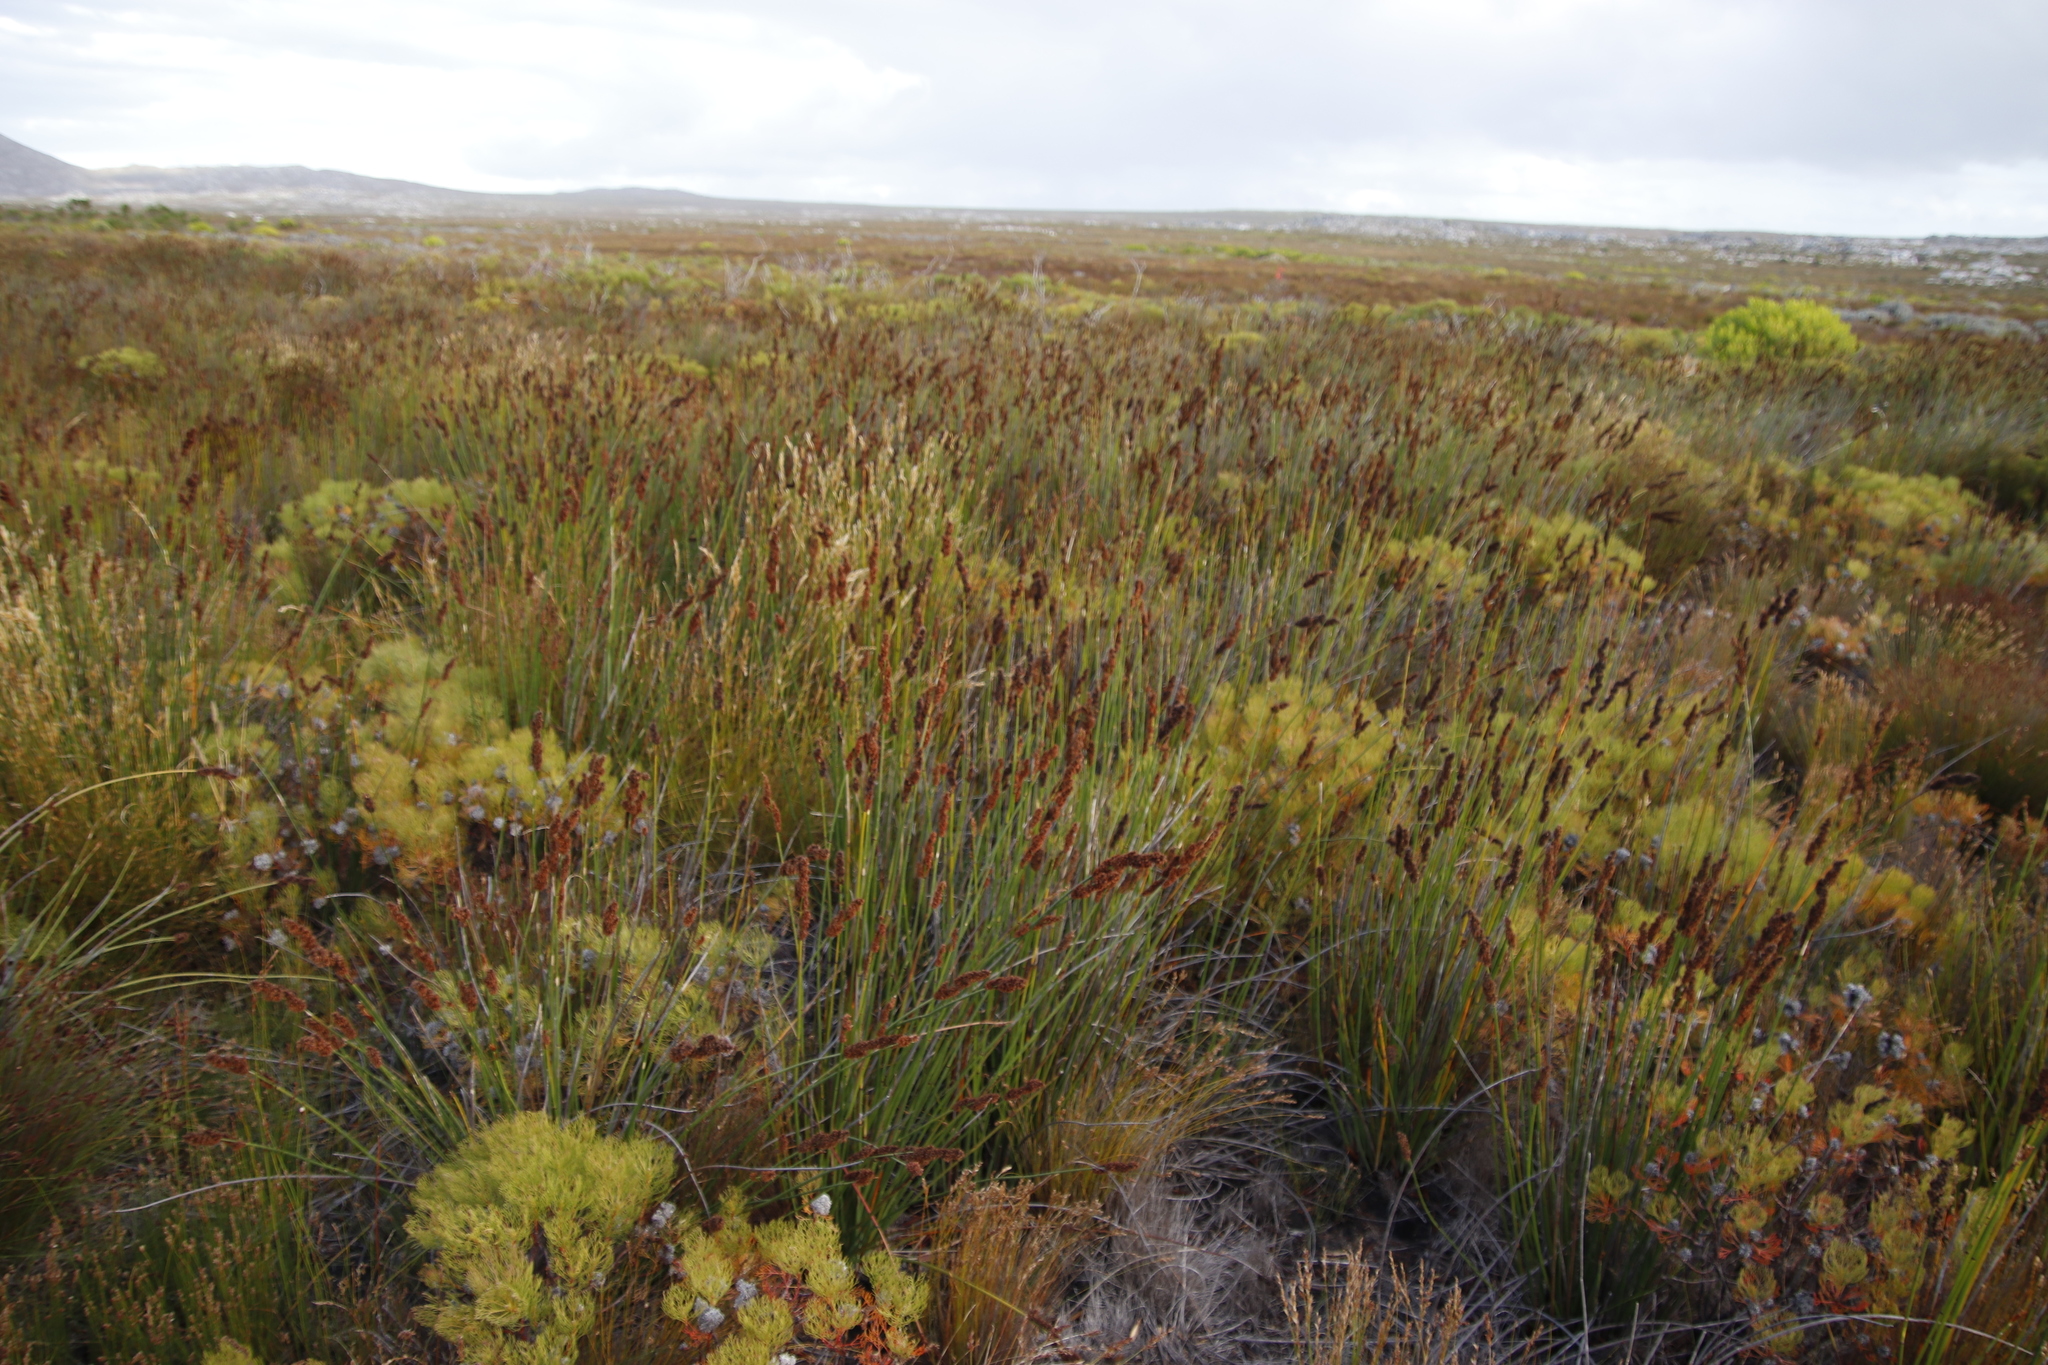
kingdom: Plantae
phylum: Tracheophyta
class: Liliopsida
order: Poales
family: Restionaceae
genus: Elegia
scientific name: Elegia cuspidata
